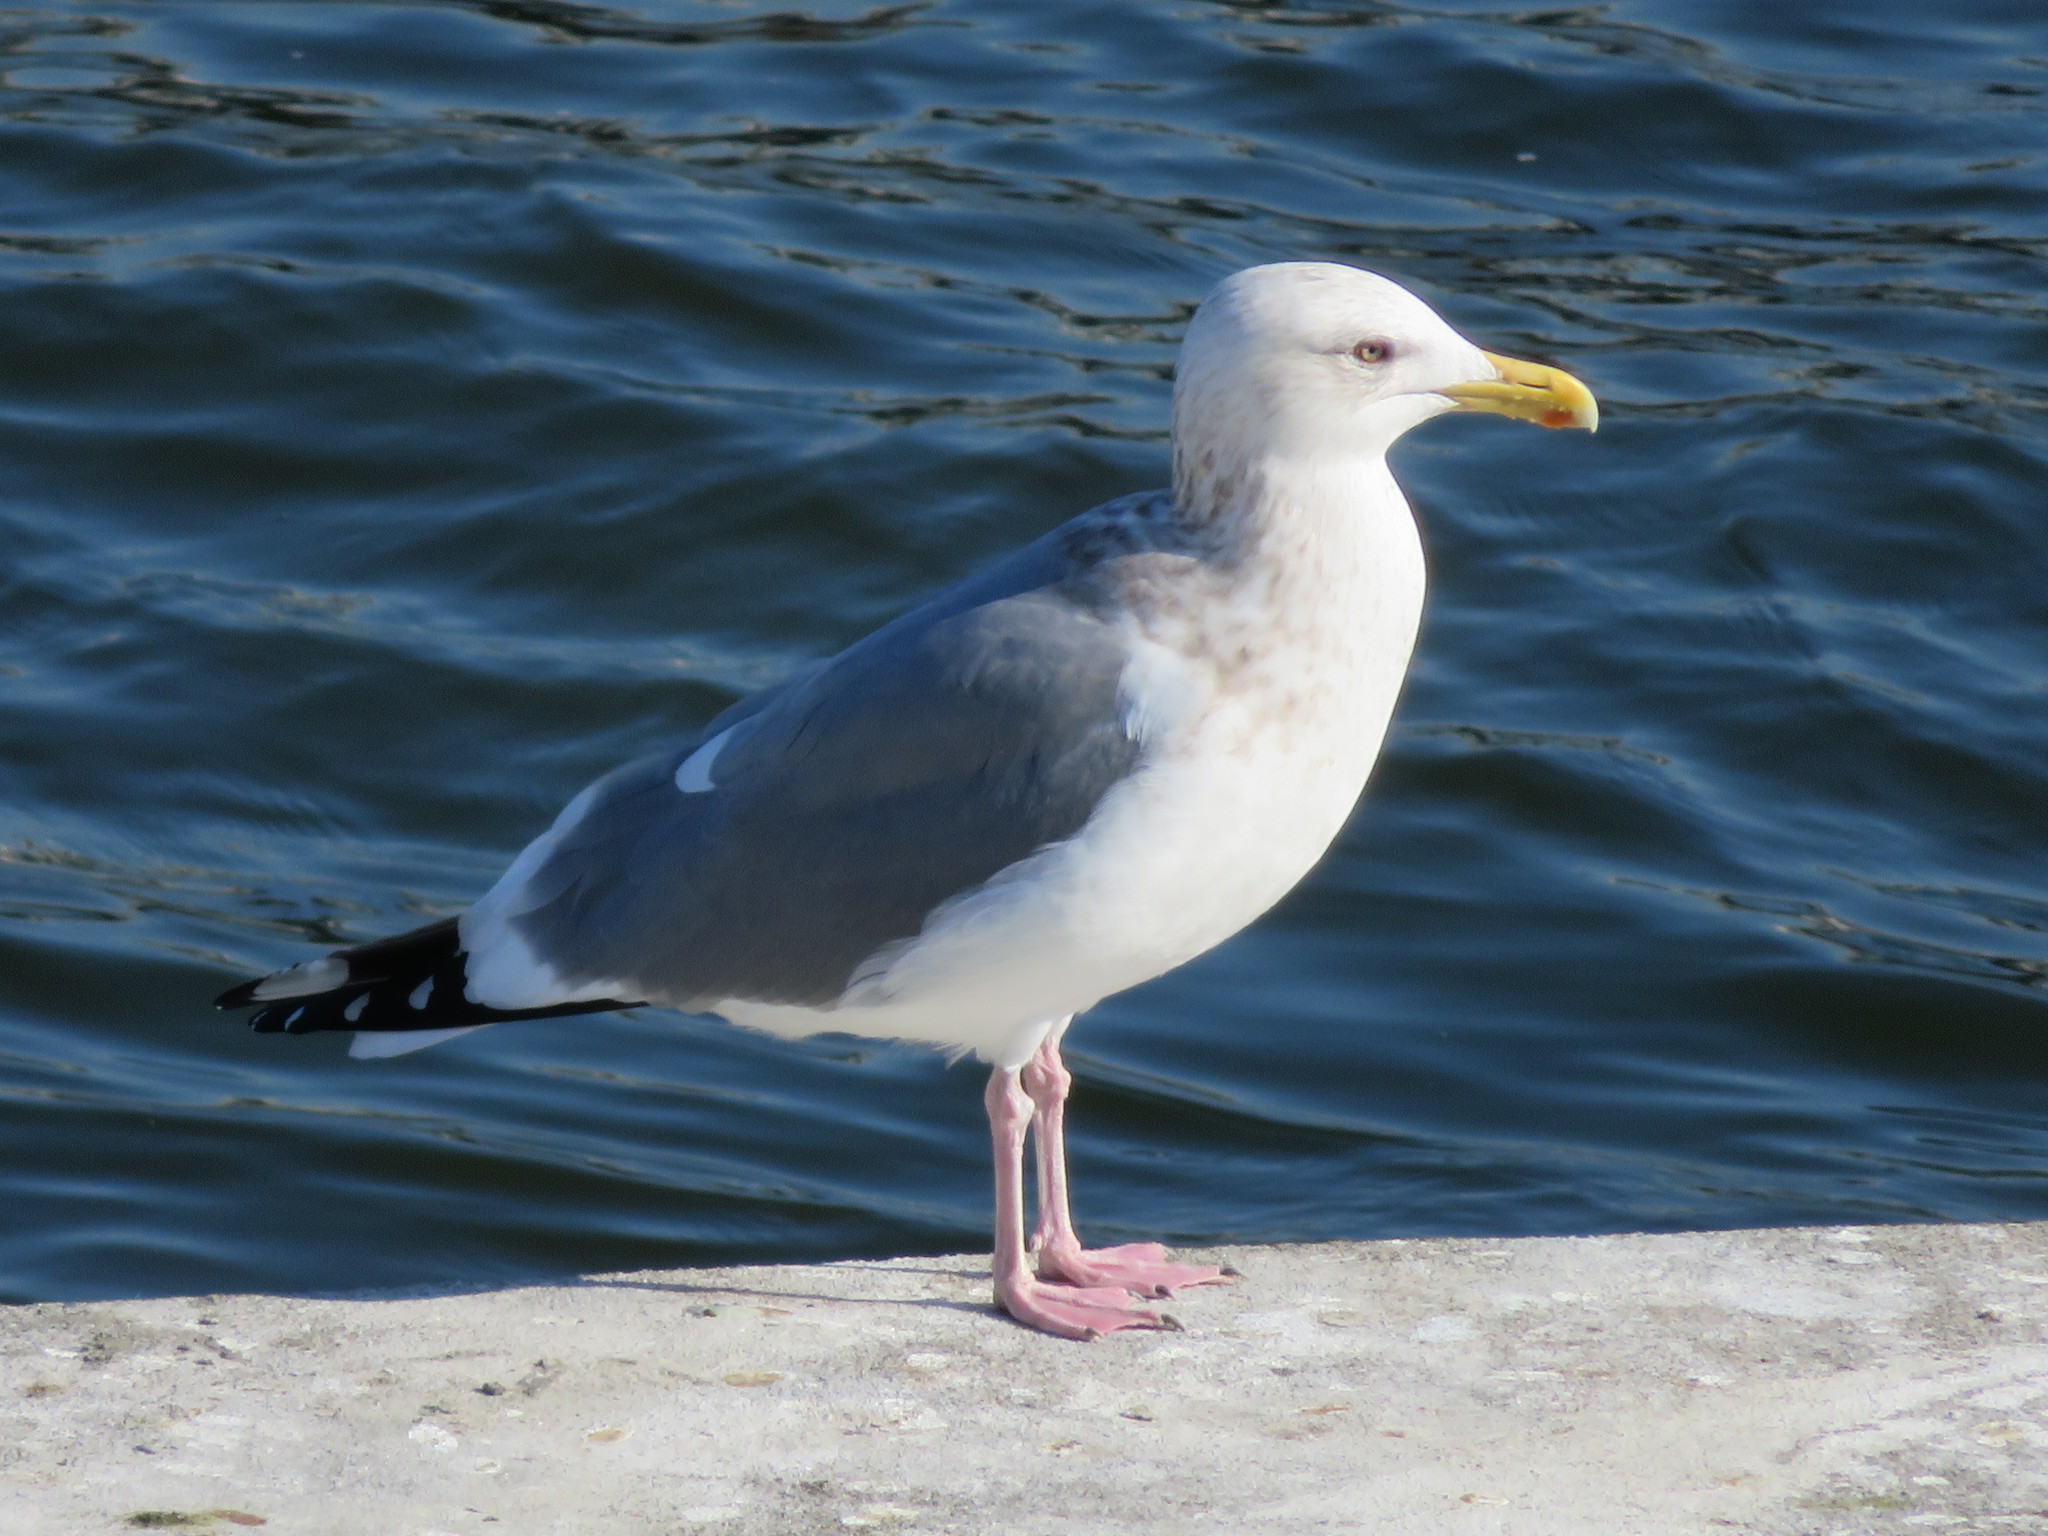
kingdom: Animalia
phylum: Chordata
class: Aves
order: Charadriiformes
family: Laridae
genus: Larus
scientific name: Larus vegae
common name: Vega gull
